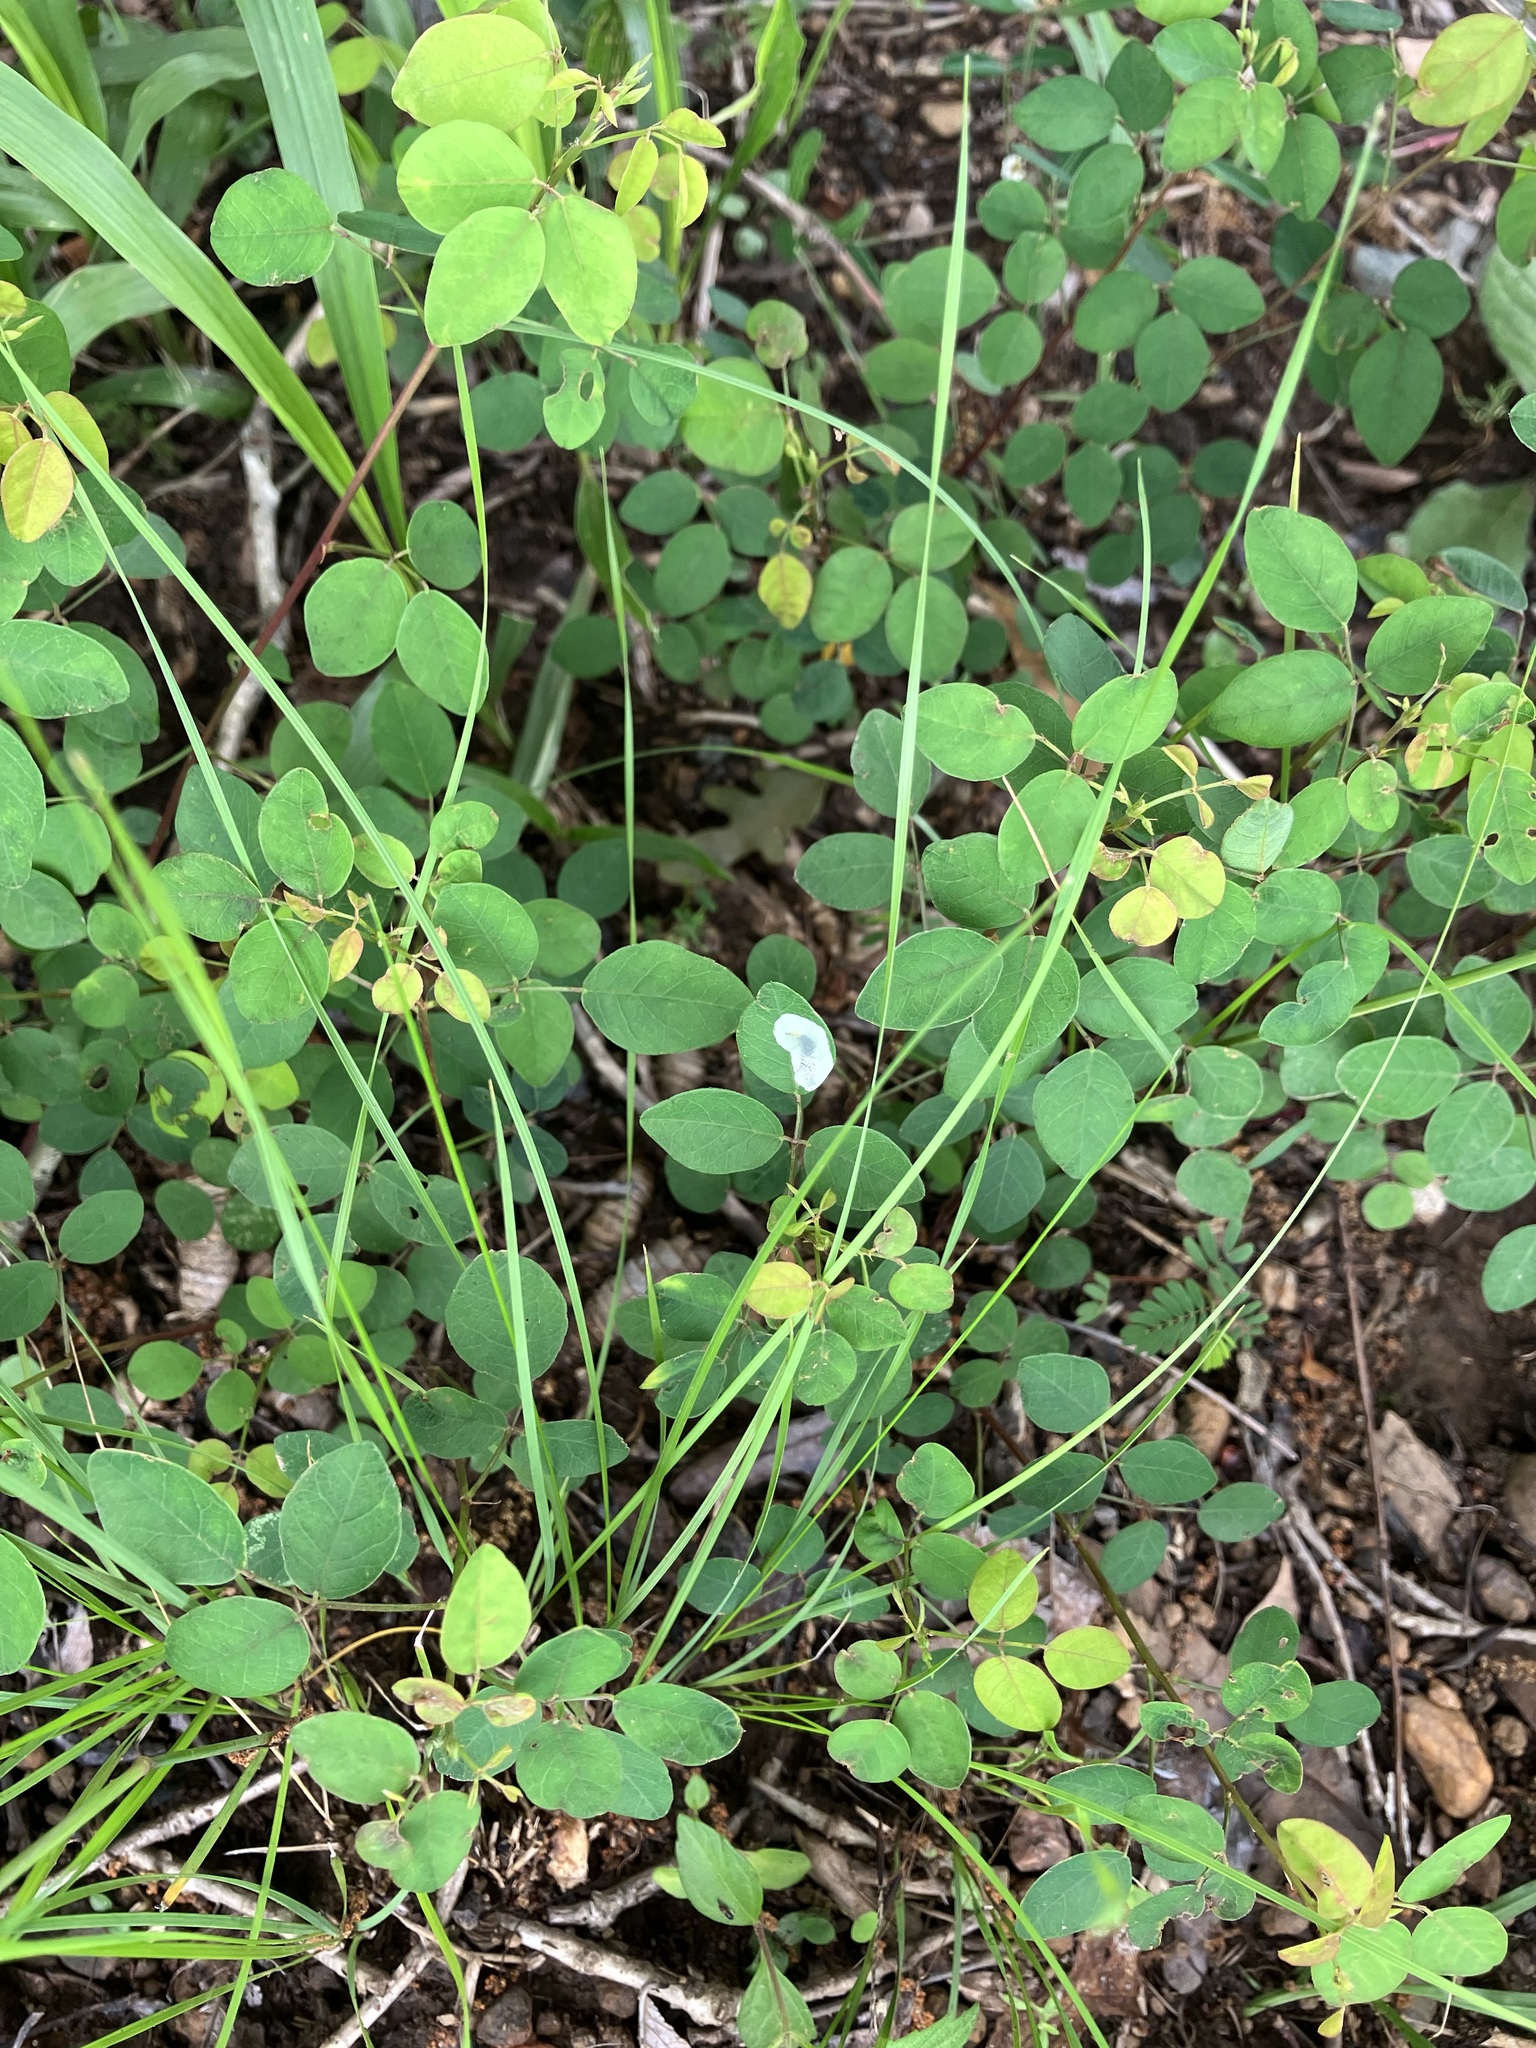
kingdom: Animalia
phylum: Arthropoda
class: Insecta
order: Lepidoptera
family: Gracillariidae
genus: Anarsioses
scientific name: Anarsioses aberrans
